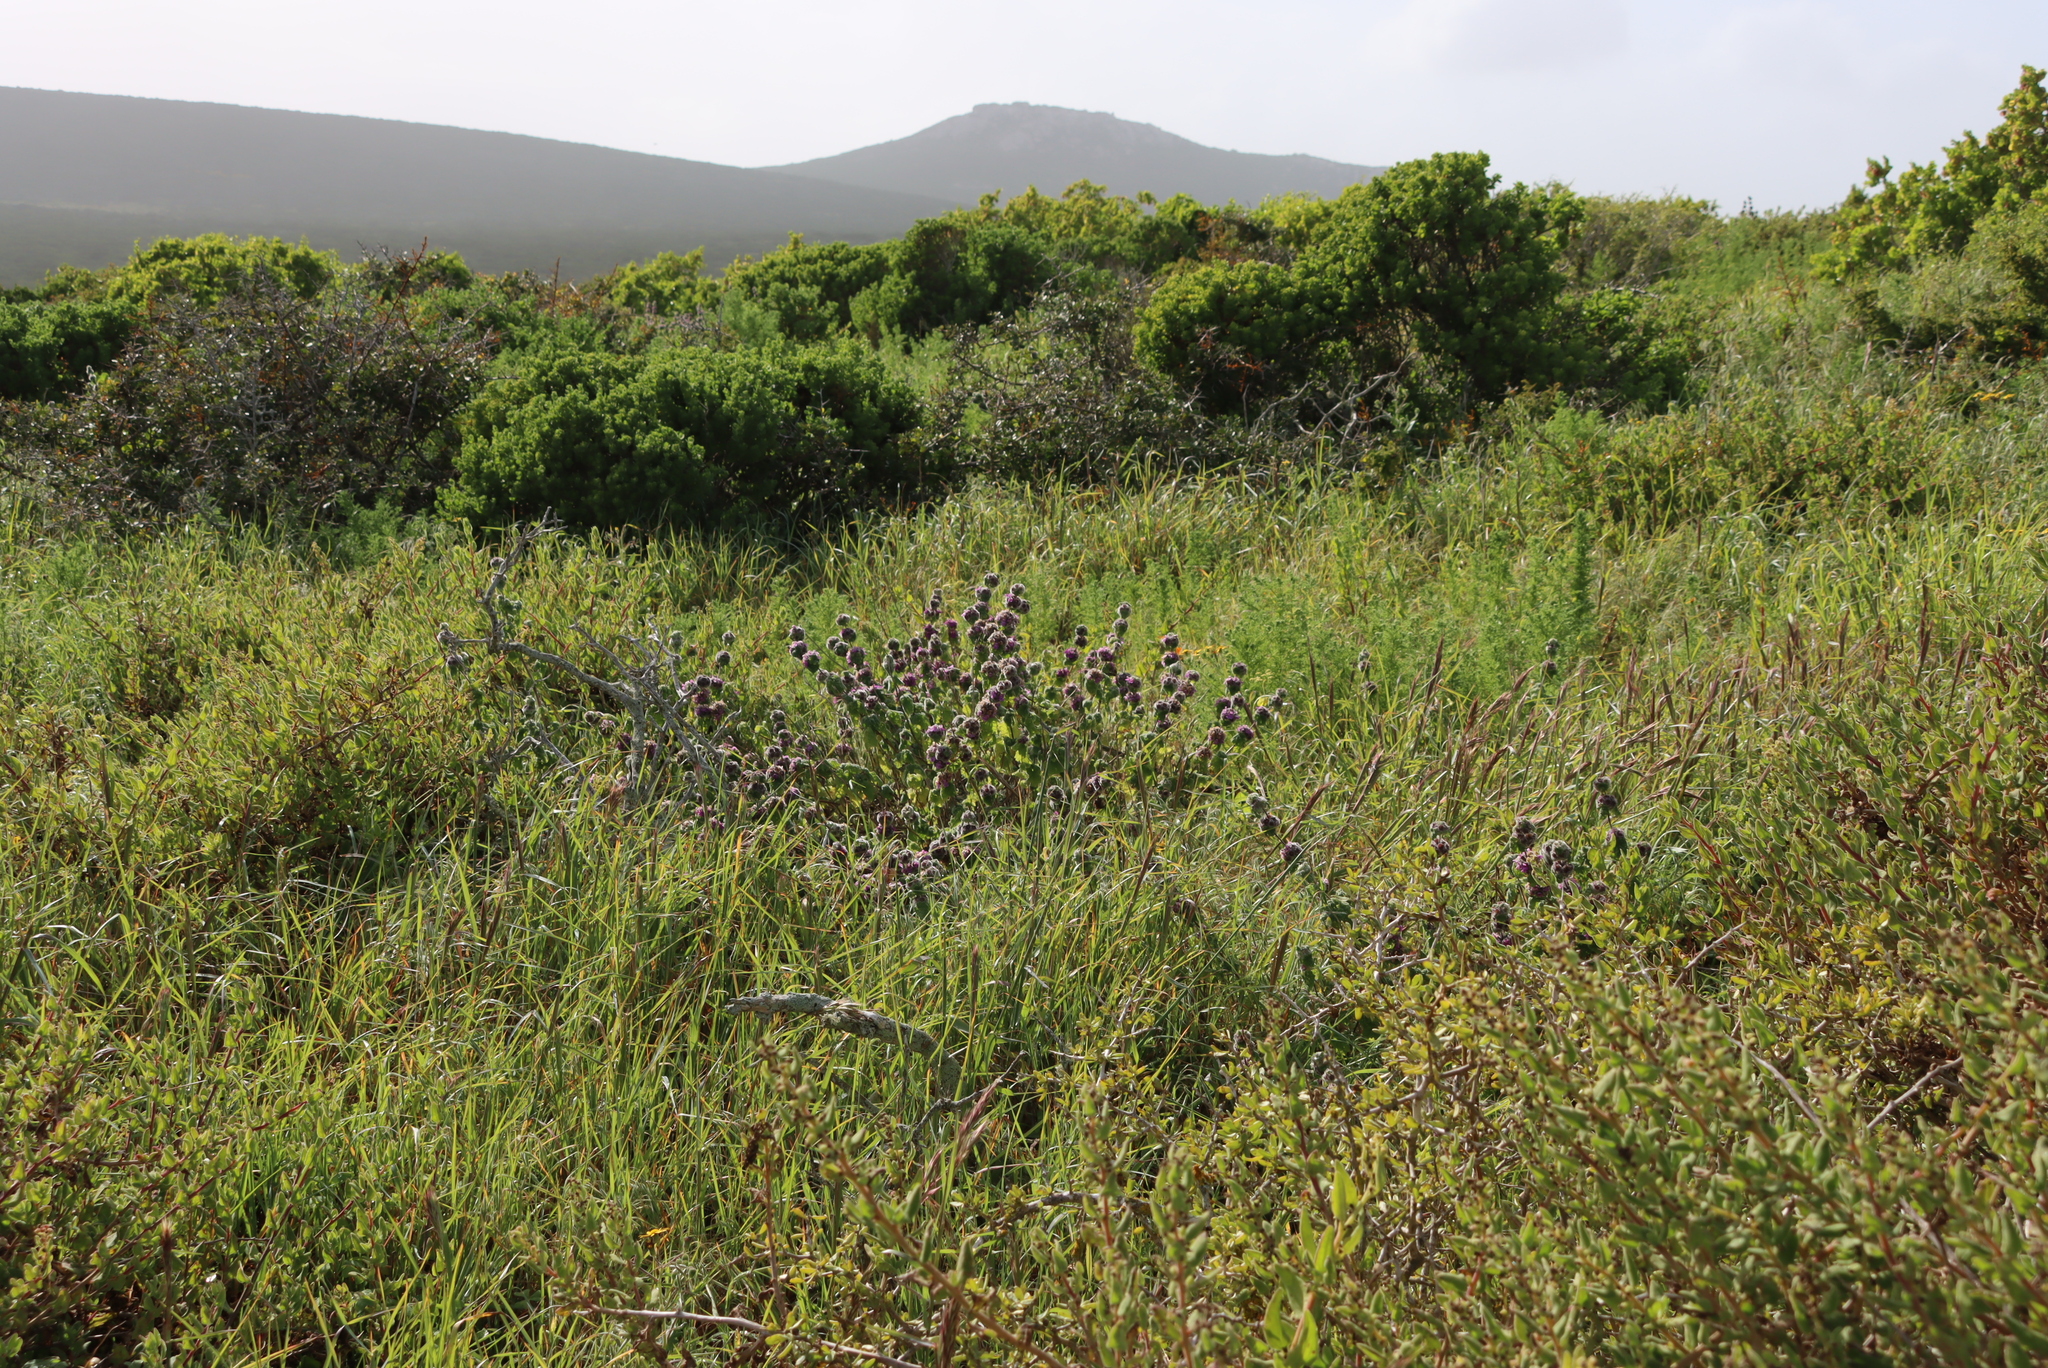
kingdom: Plantae
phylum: Tracheophyta
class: Magnoliopsida
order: Lamiales
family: Lamiaceae
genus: Pseudodictamnus
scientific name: Pseudodictamnus africanus
